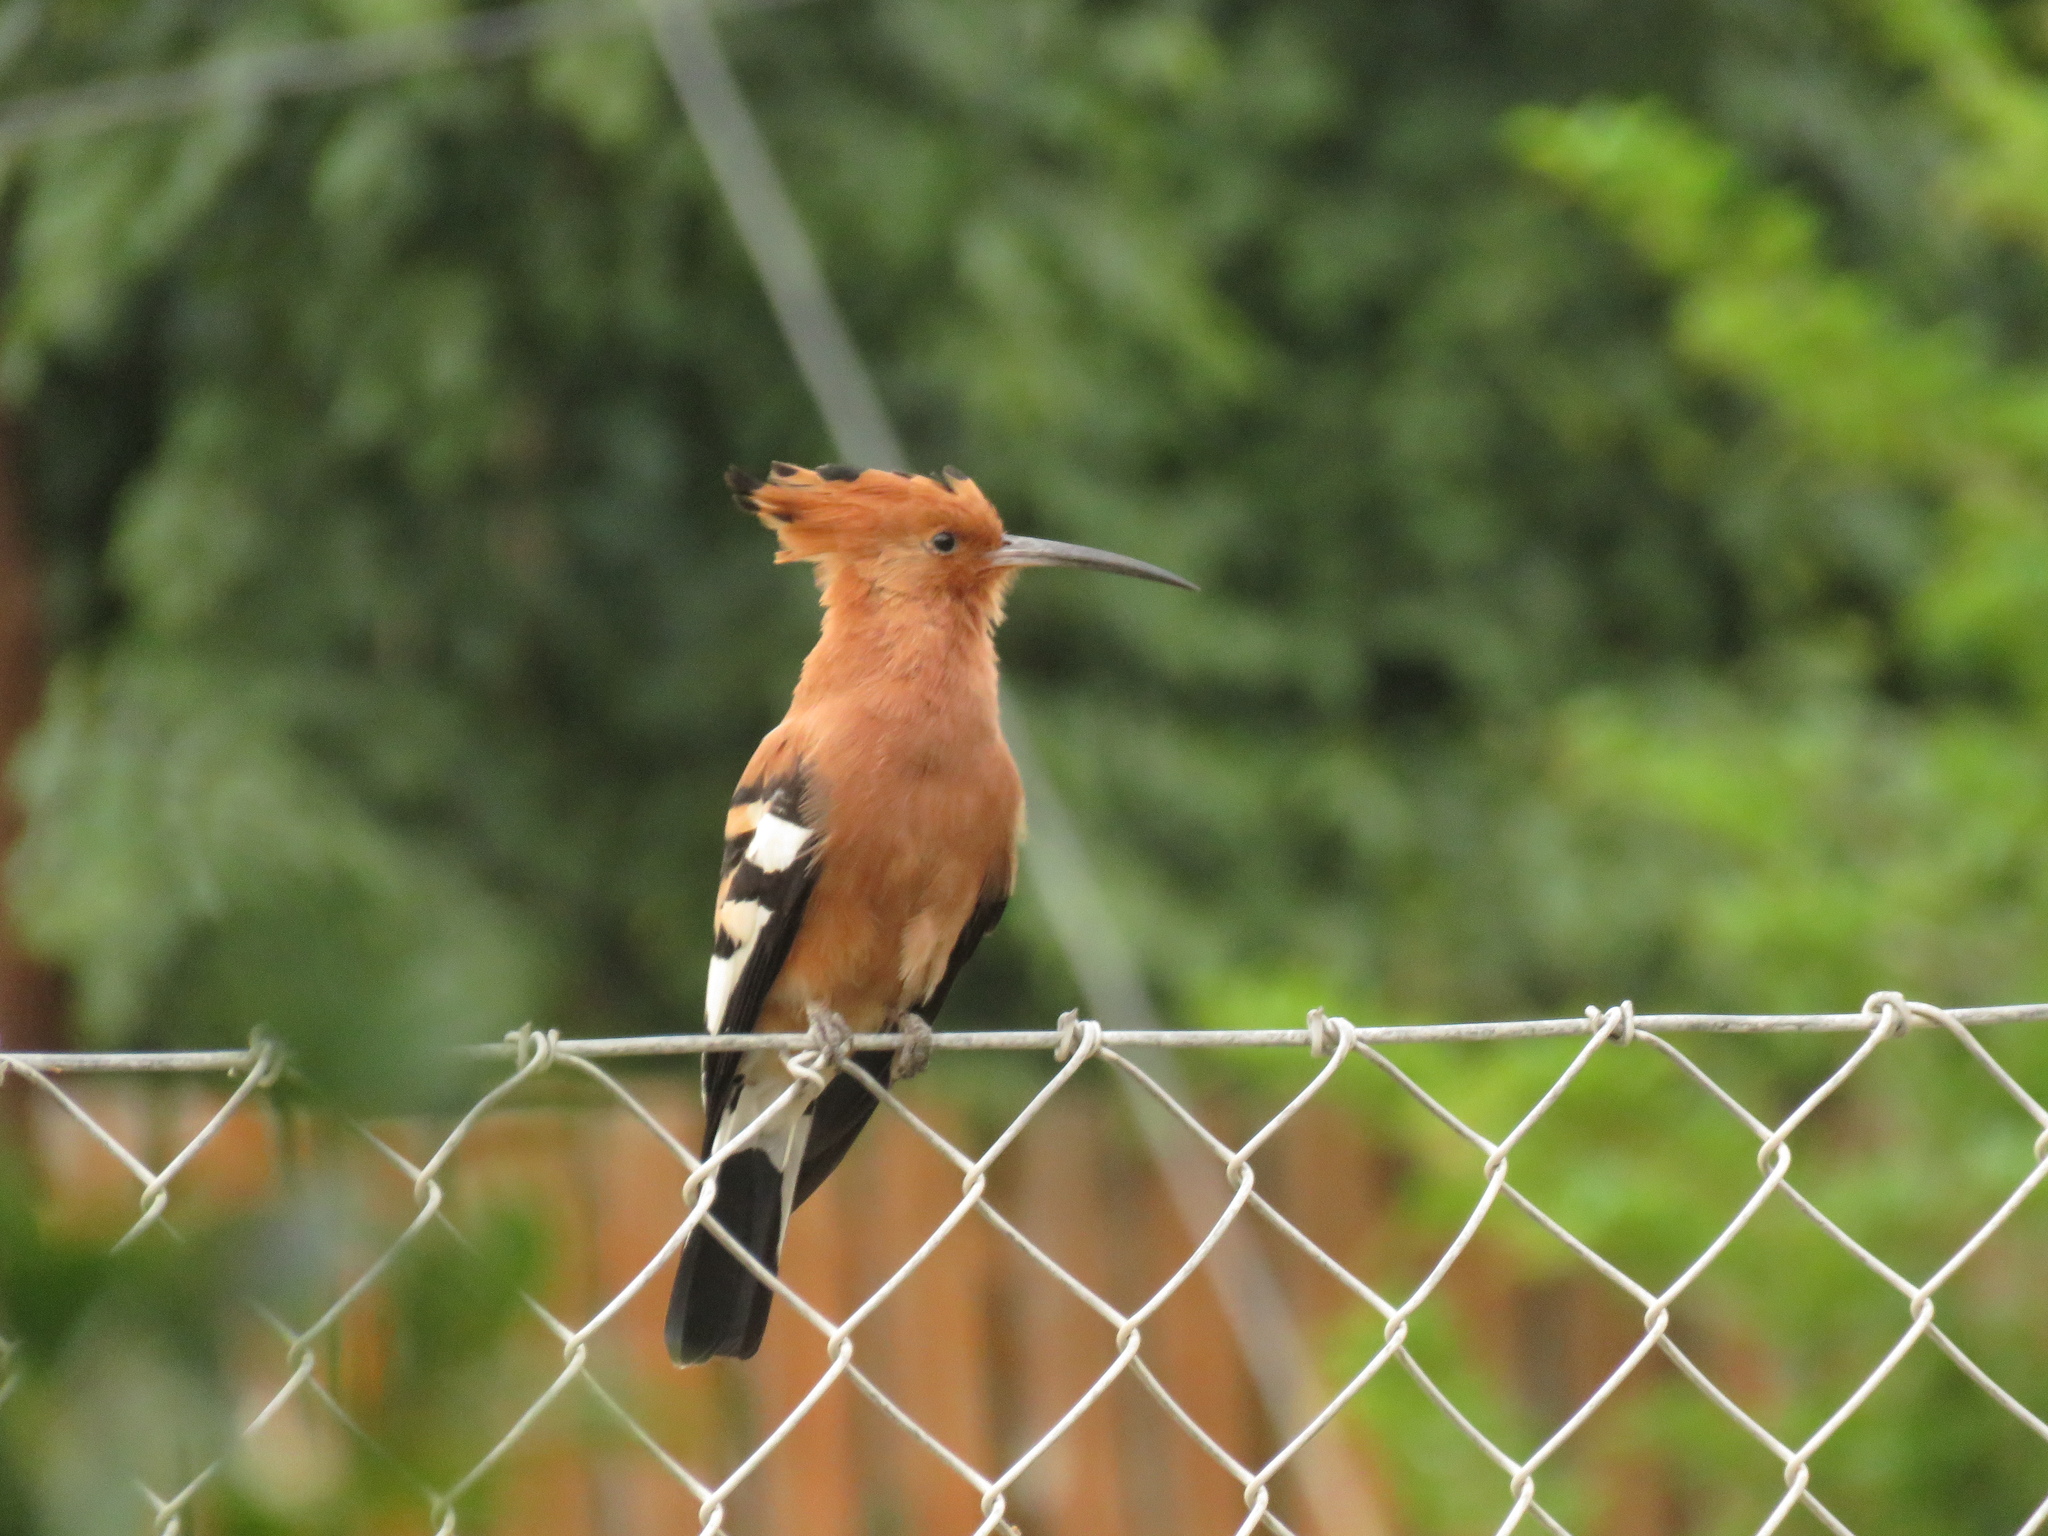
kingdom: Animalia
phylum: Chordata
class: Aves
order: Bucerotiformes
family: Upupidae
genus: Upupa
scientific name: Upupa africana
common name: African hoopoe
